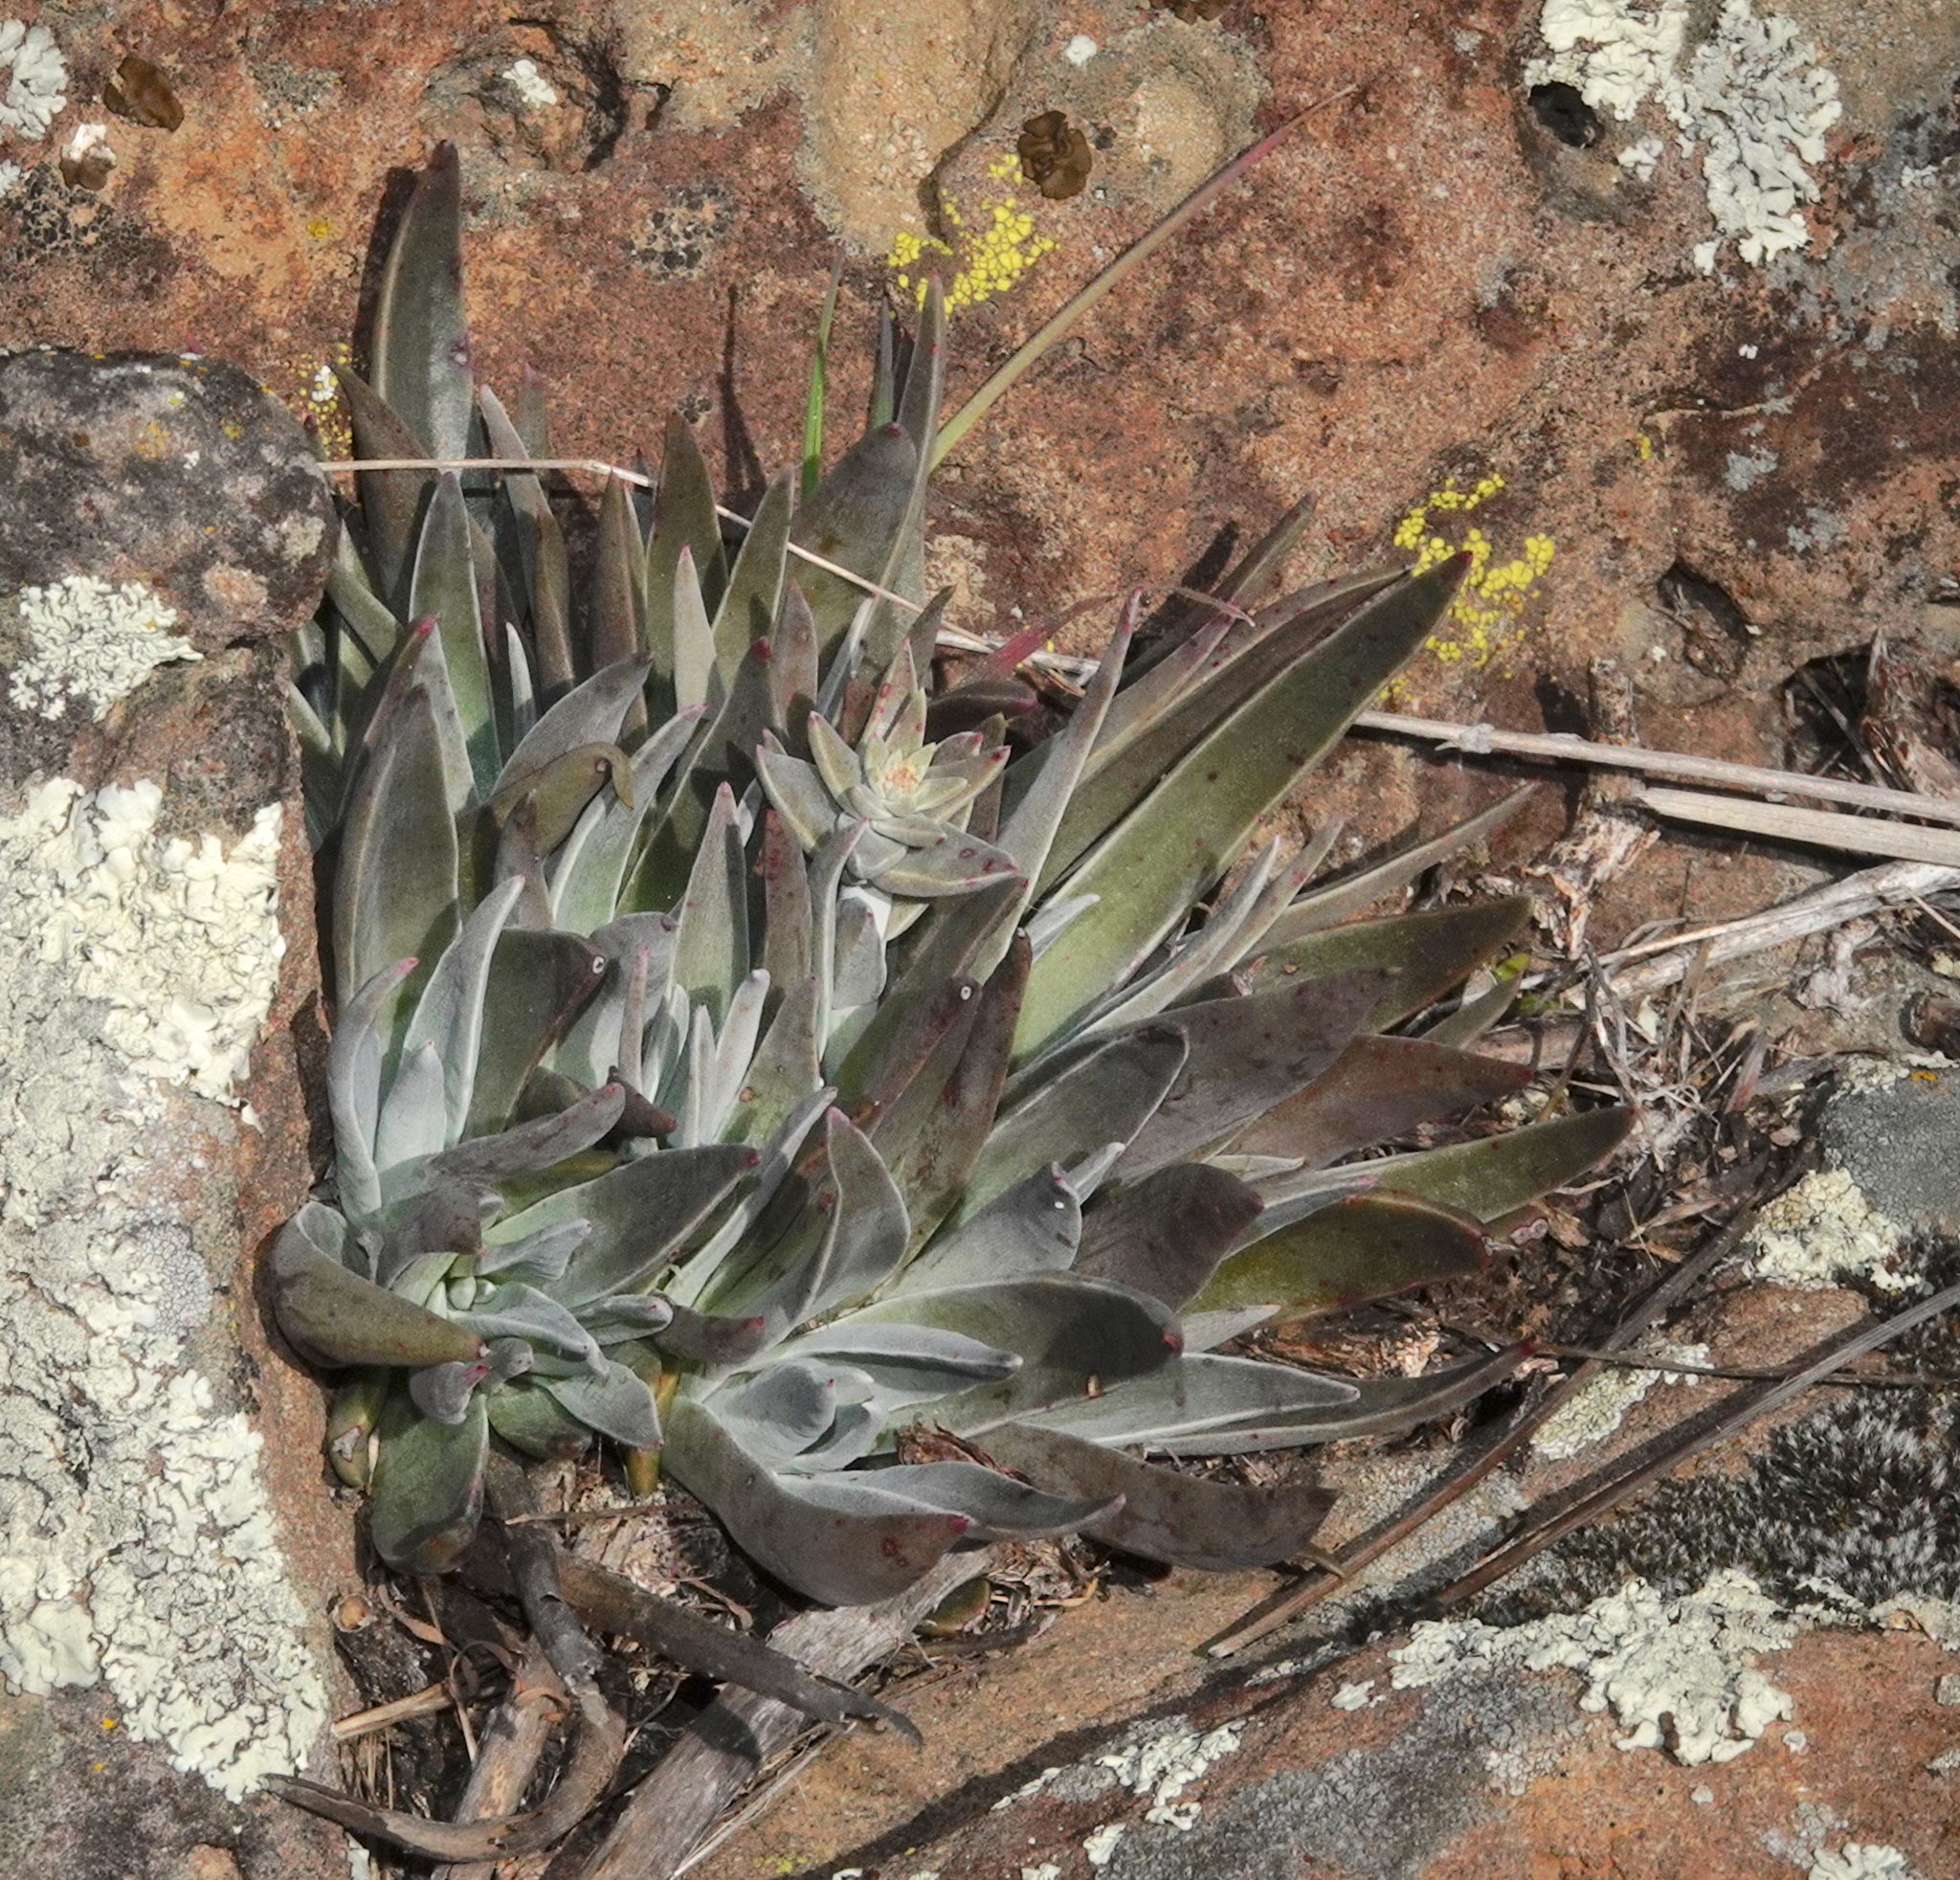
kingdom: Plantae
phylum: Tracheophyta
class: Magnoliopsida
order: Saxifragales
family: Crassulaceae
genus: Dudleya
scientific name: Dudleya lanceolata
